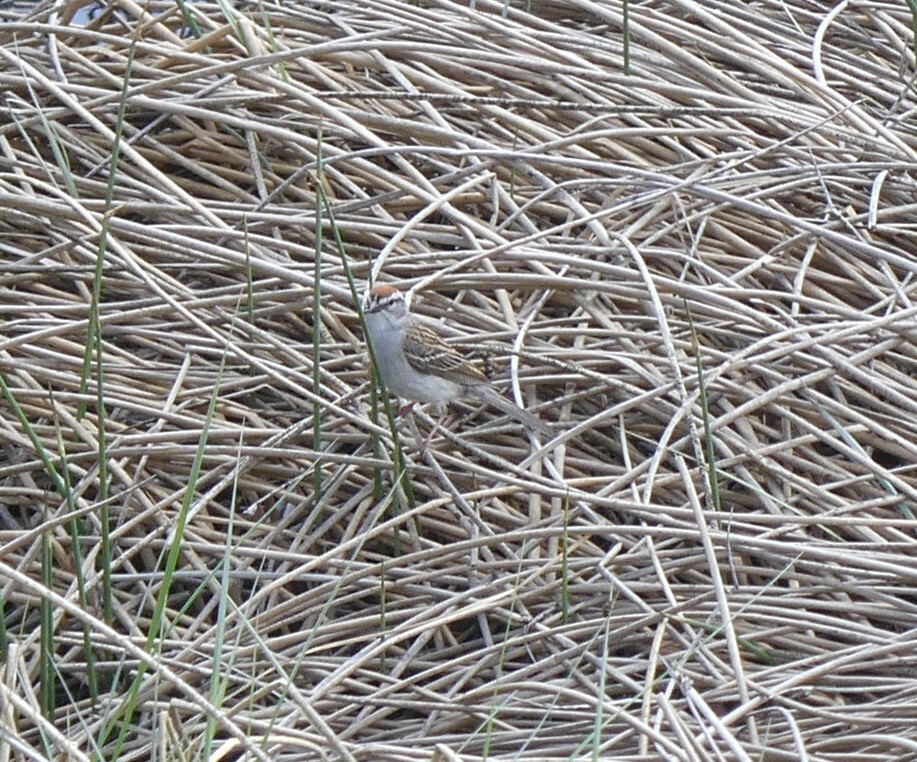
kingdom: Animalia
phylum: Chordata
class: Aves
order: Passeriformes
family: Passerellidae
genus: Spizella
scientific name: Spizella passerina
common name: Chipping sparrow
